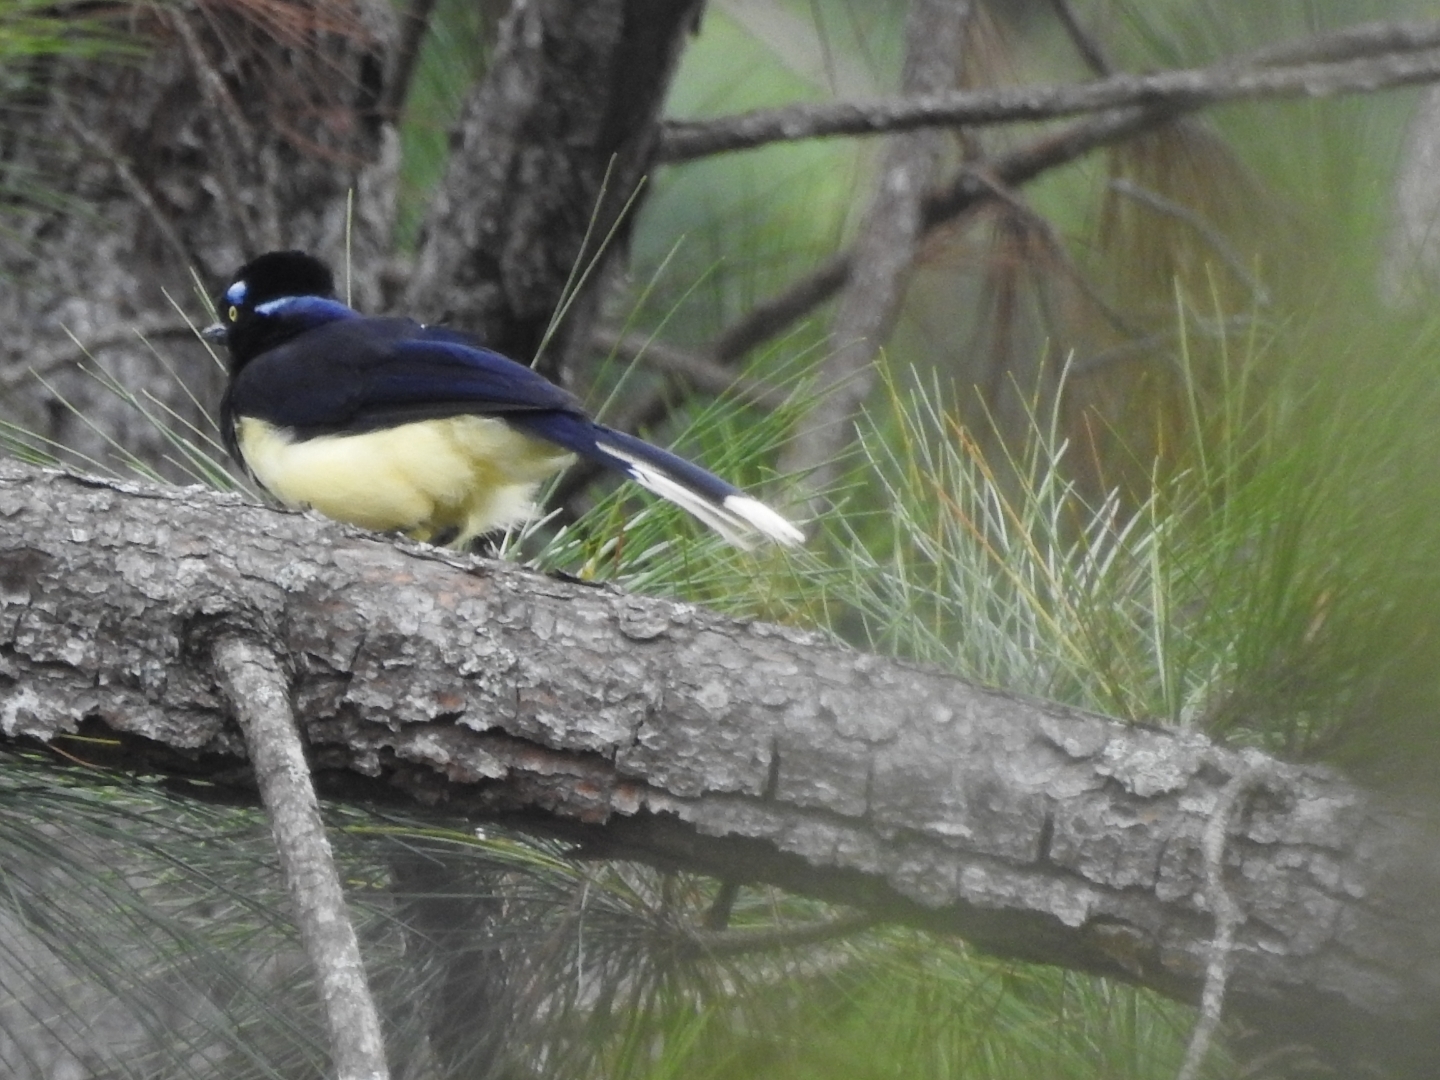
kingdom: Animalia
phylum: Chordata
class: Aves
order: Passeriformes
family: Corvidae
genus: Cyanocorax
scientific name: Cyanocorax chrysops
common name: Plush-crested jay
